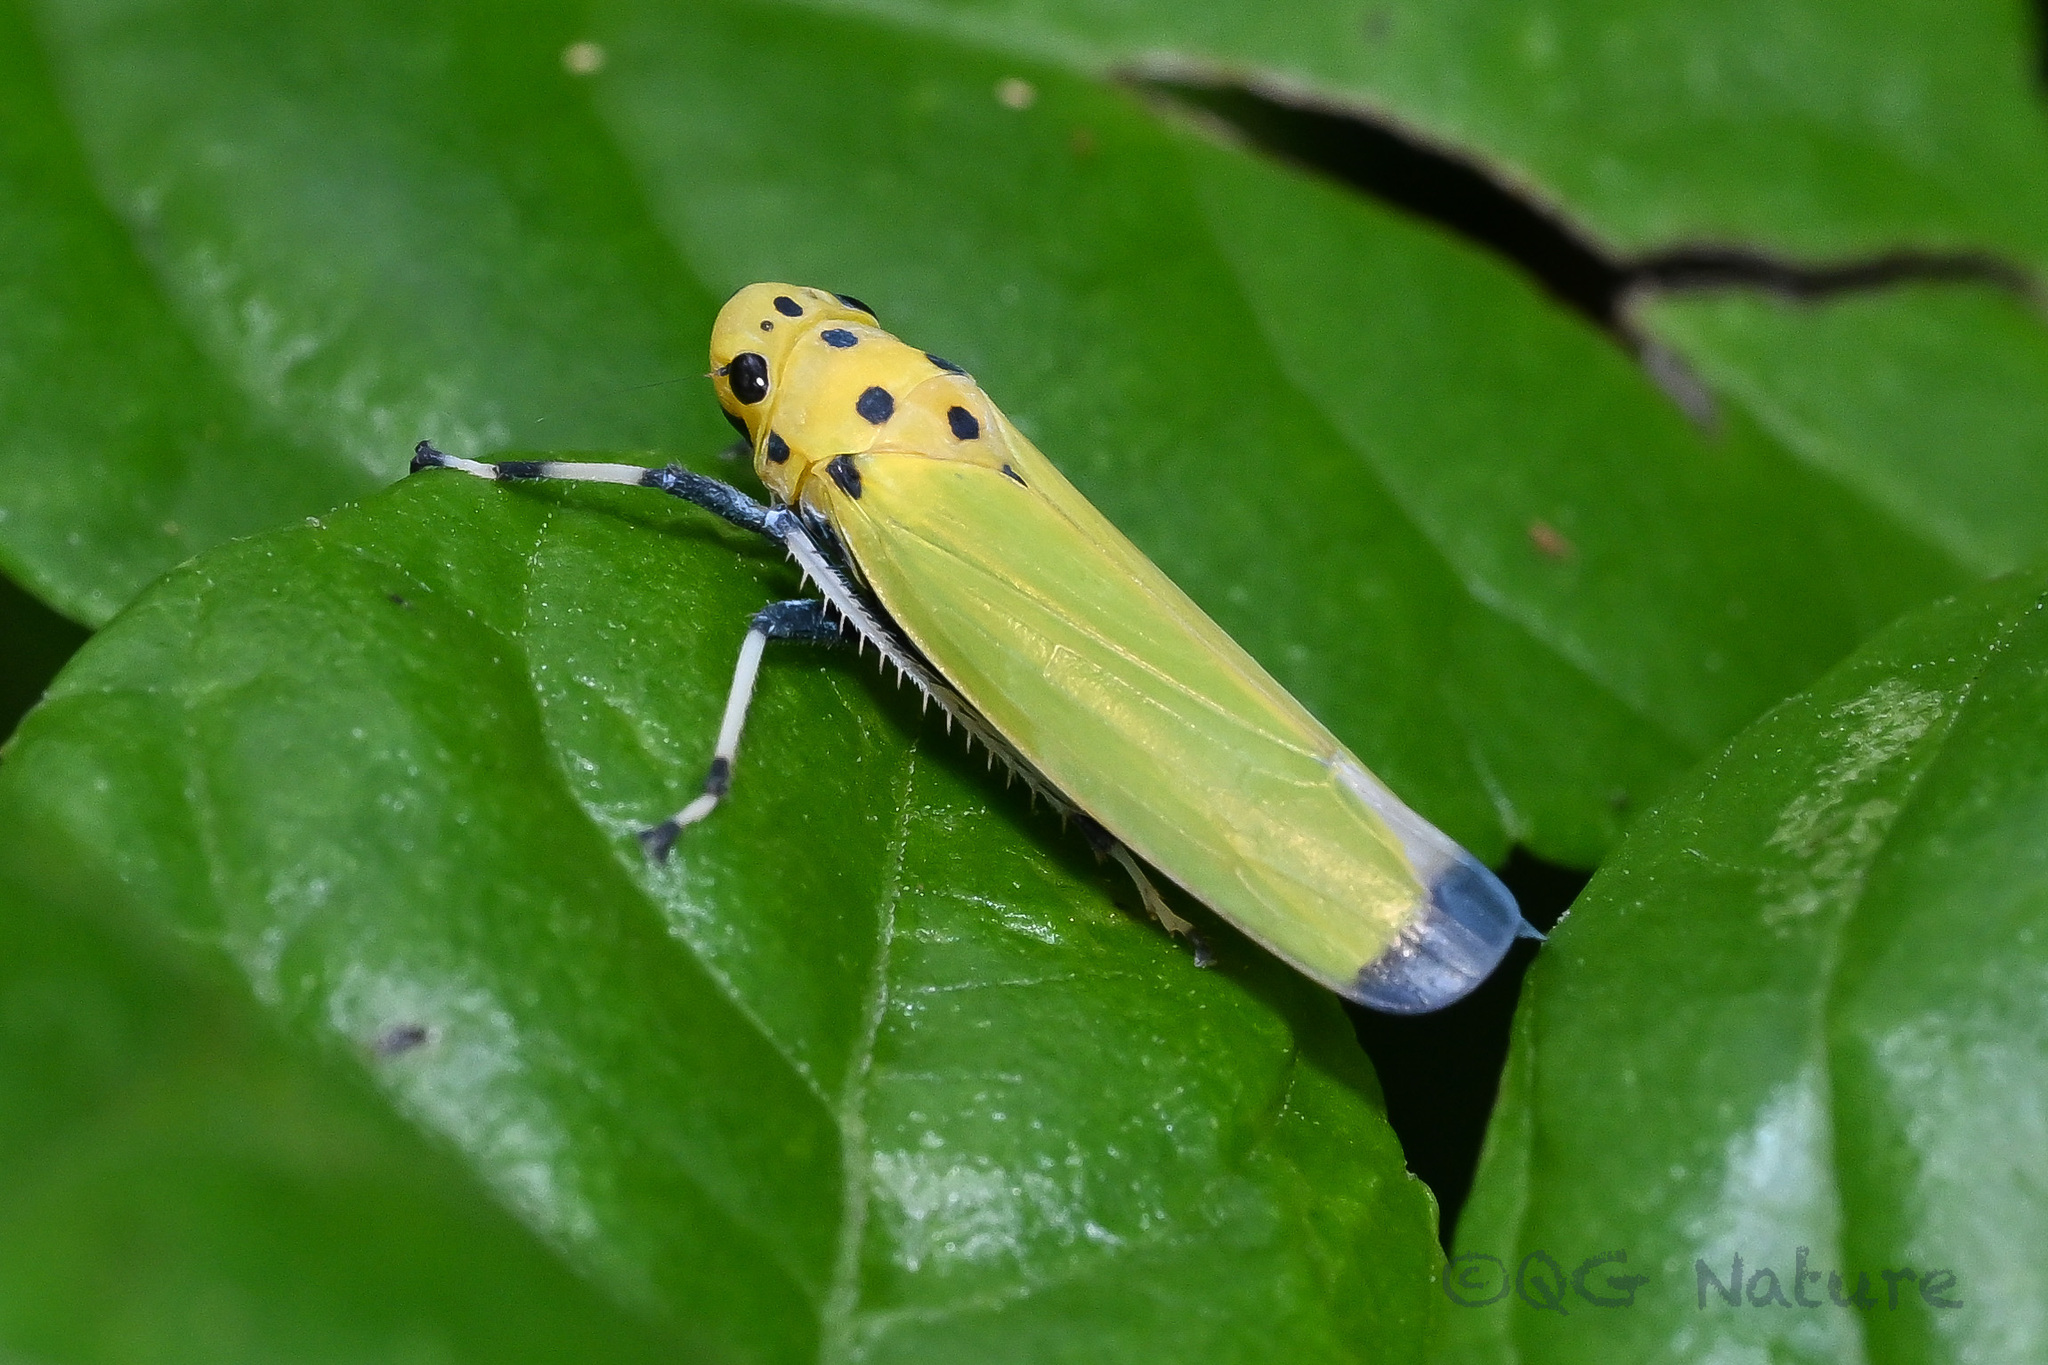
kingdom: Animalia
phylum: Arthropoda
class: Insecta
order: Hemiptera
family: Cicadellidae
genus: Bothrogonia
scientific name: Bothrogonia ferruginea
